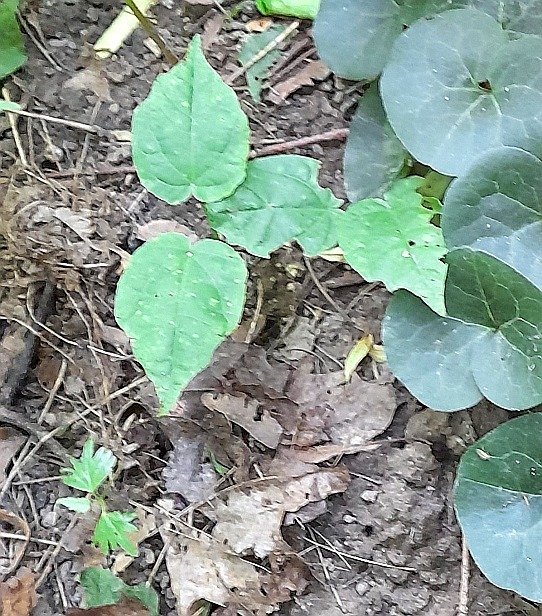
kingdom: Plantae
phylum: Tracheophyta
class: Magnoliopsida
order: Sapindales
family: Sapindaceae
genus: Acer
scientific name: Acer platanoides
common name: Norway maple
